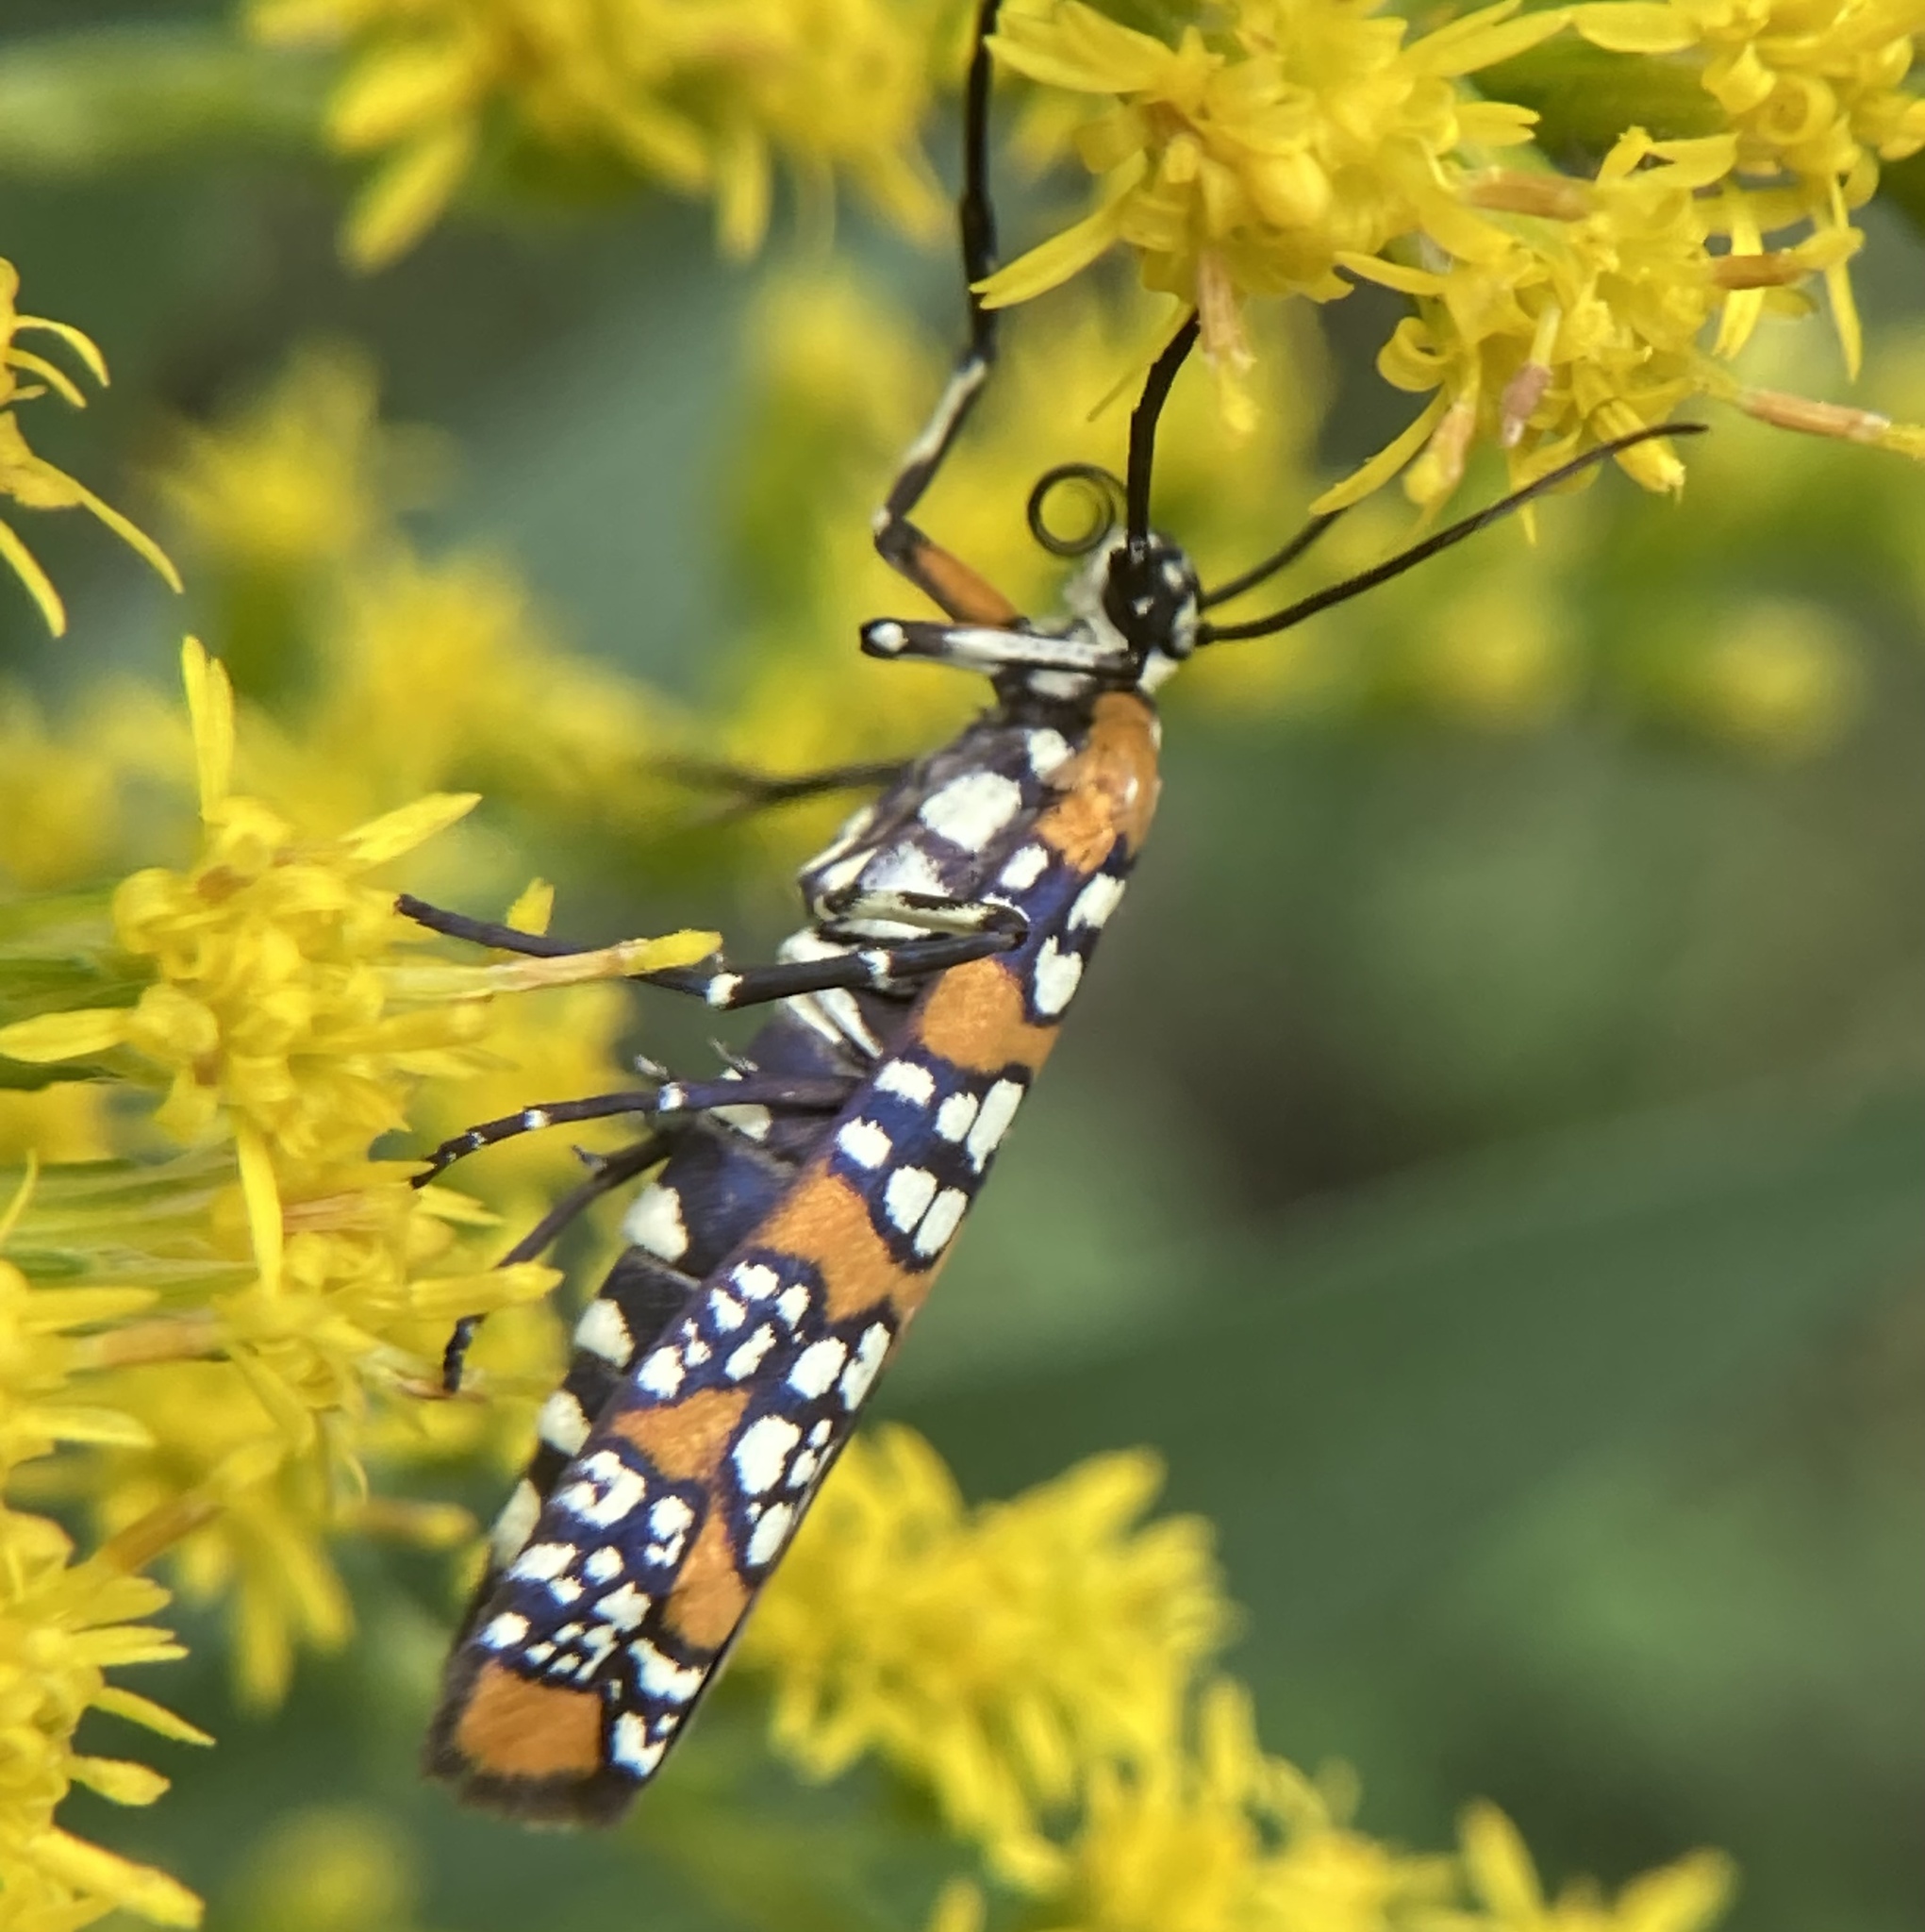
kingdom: Animalia
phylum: Arthropoda
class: Insecta
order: Lepidoptera
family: Attevidae
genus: Atteva
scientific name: Atteva punctella
